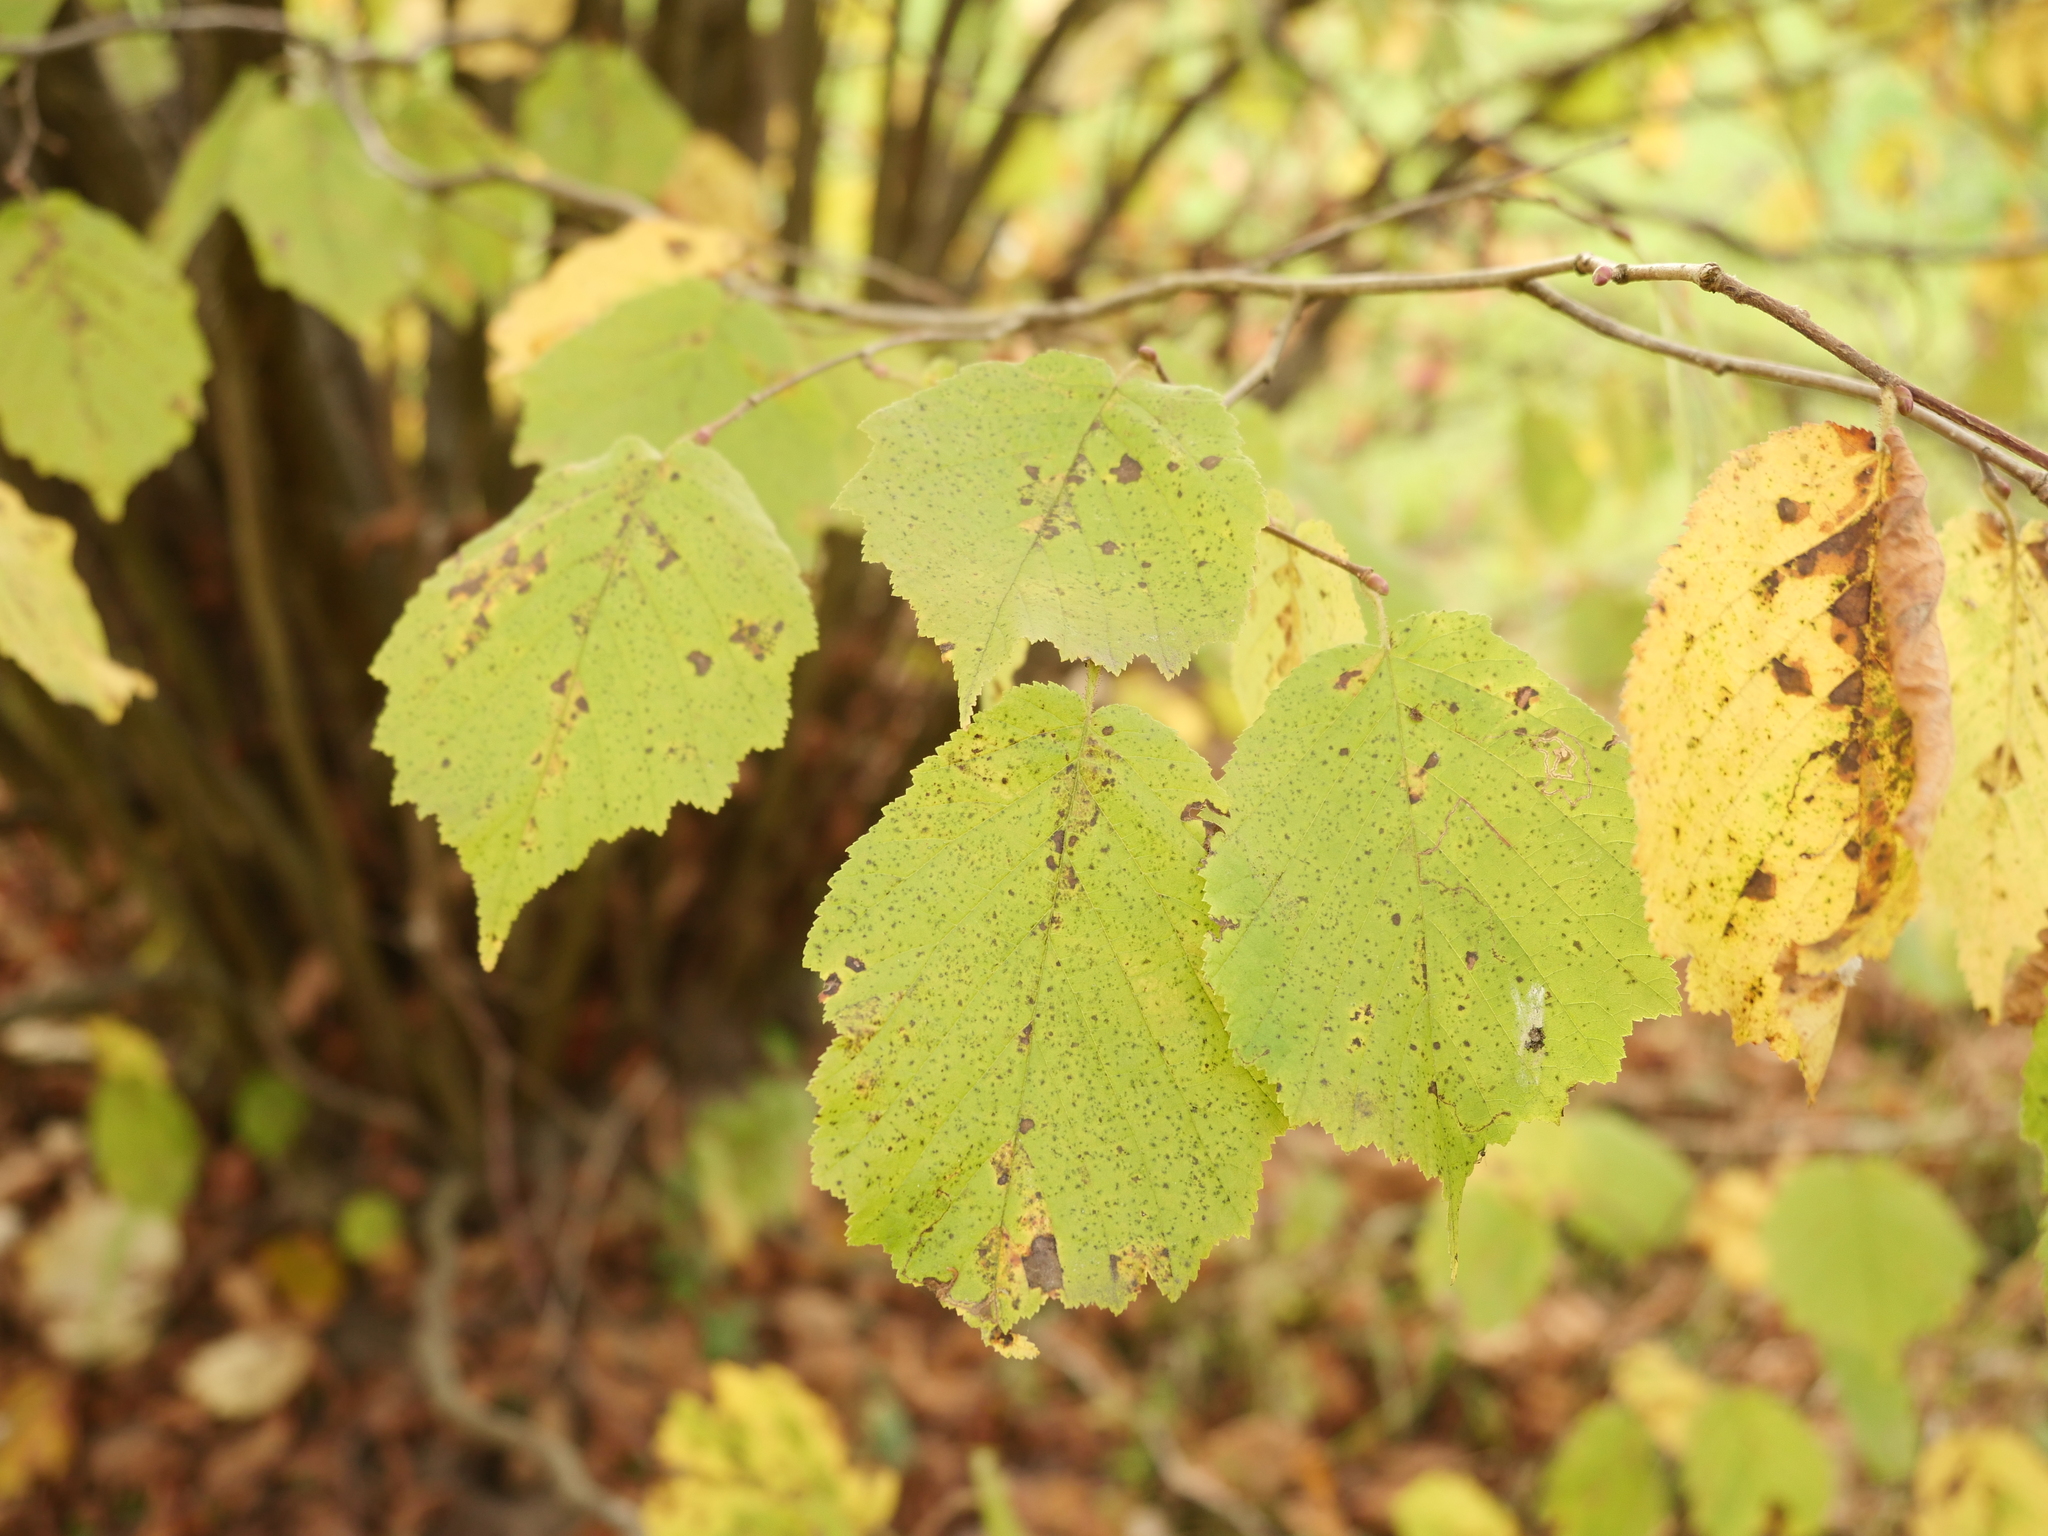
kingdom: Plantae
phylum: Tracheophyta
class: Magnoliopsida
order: Fagales
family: Betulaceae
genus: Corylus
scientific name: Corylus avellana
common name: European hazel
